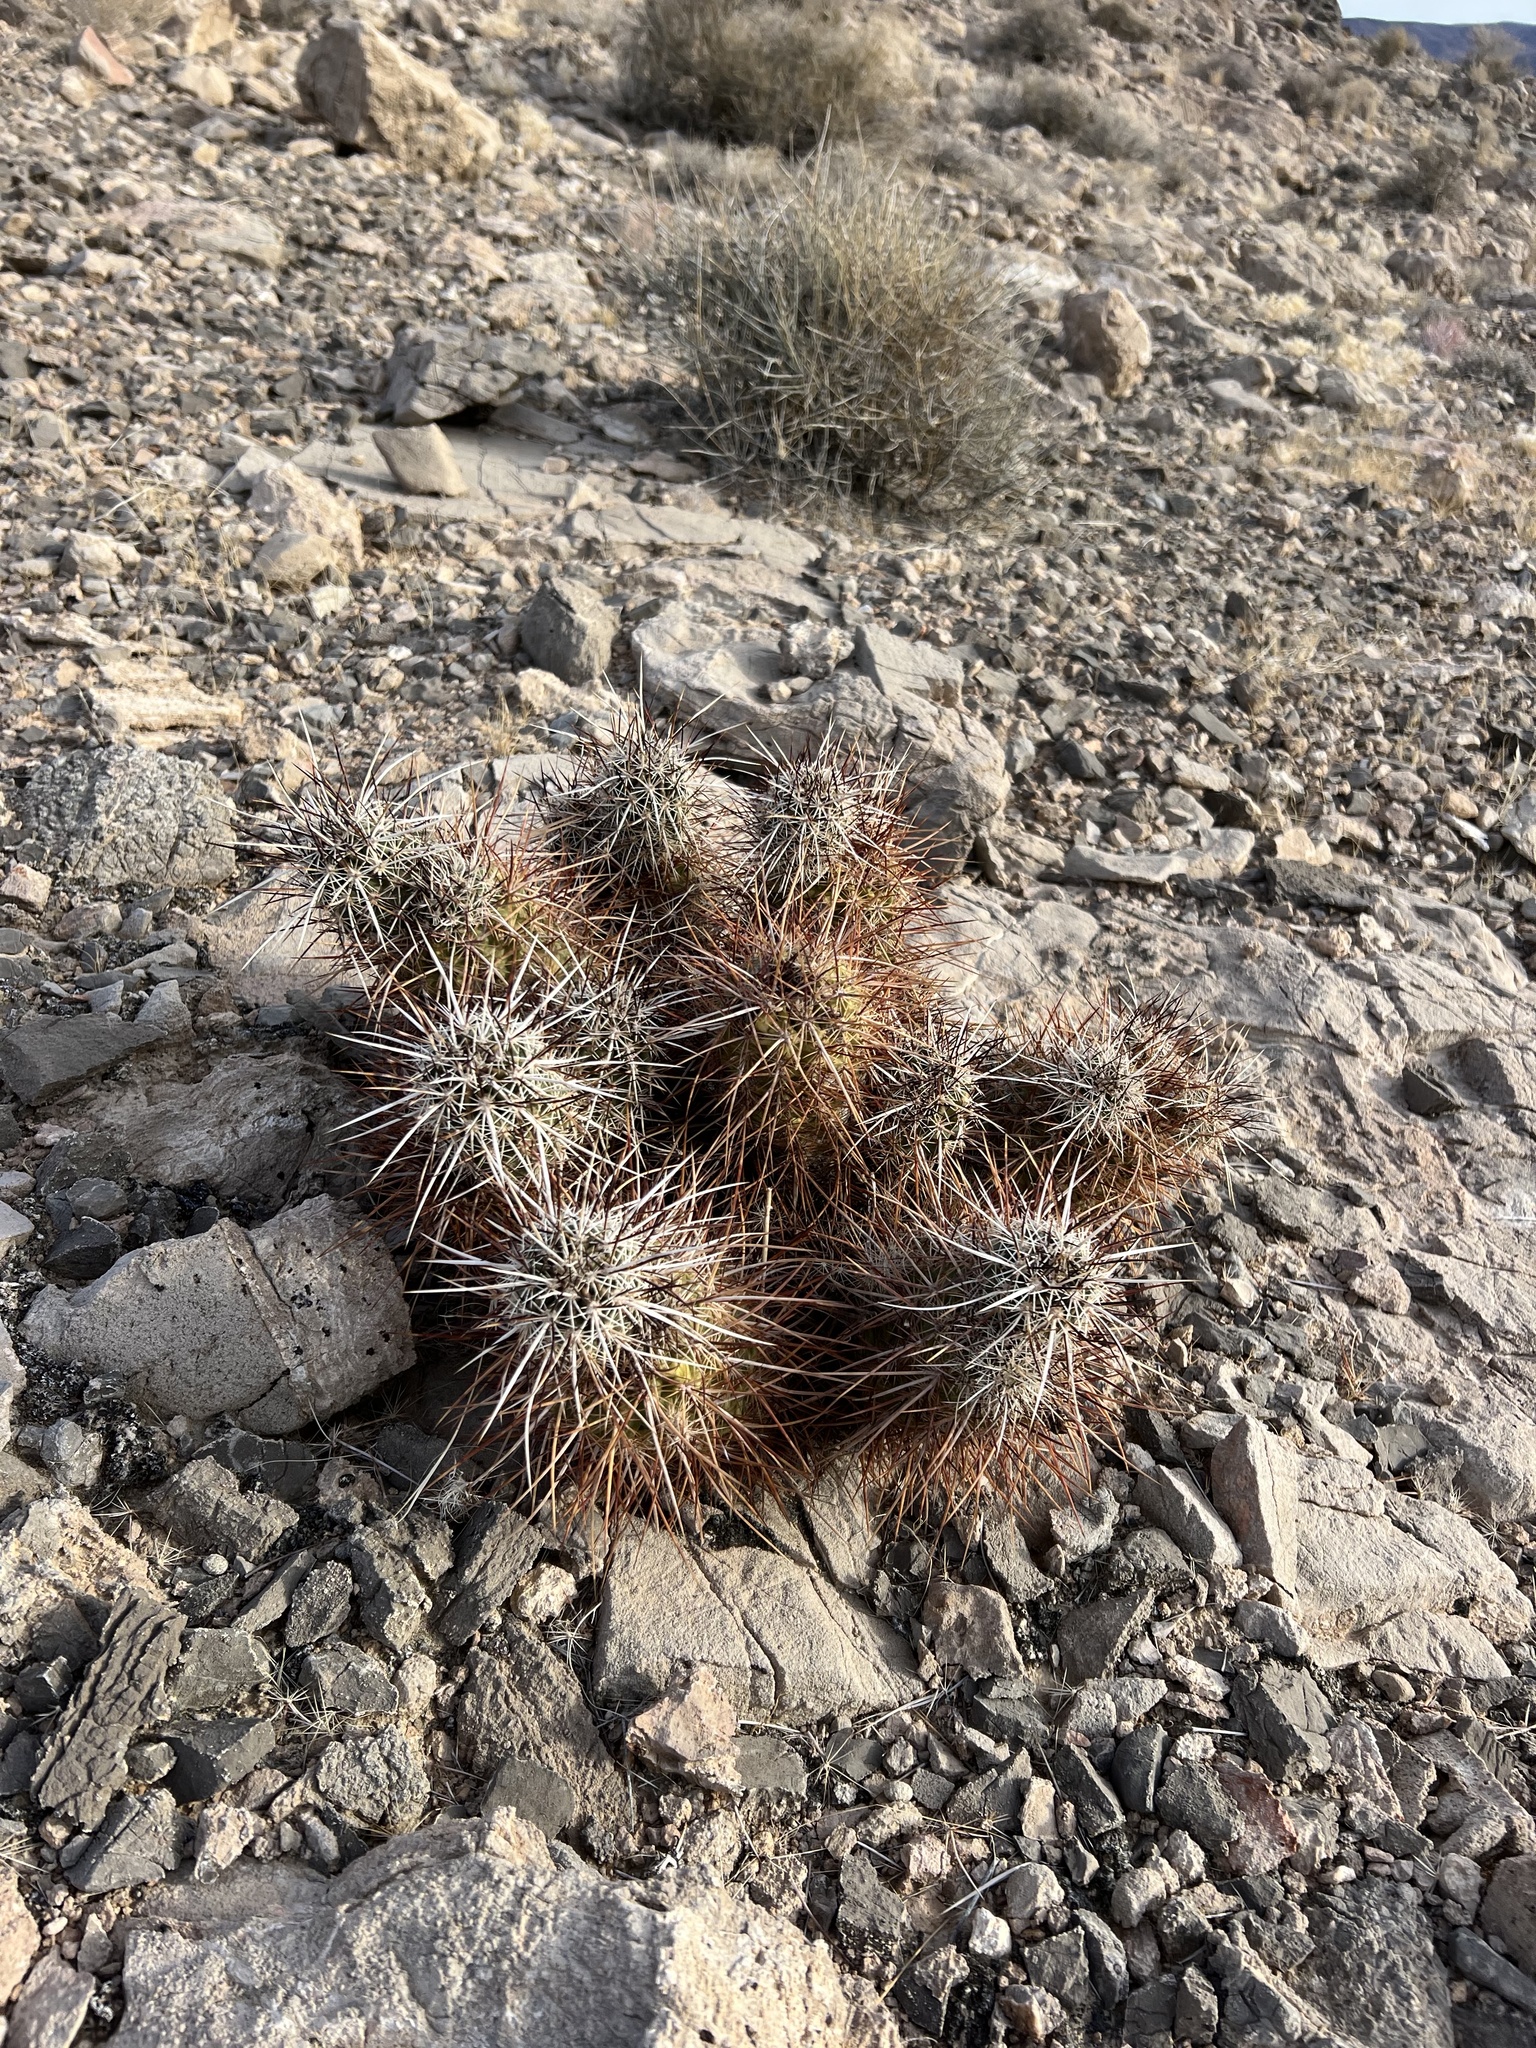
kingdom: Plantae
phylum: Tracheophyta
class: Magnoliopsida
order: Caryophyllales
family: Cactaceae
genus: Echinocereus
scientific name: Echinocereus engelmannii
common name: Engelmann's hedgehog cactus
